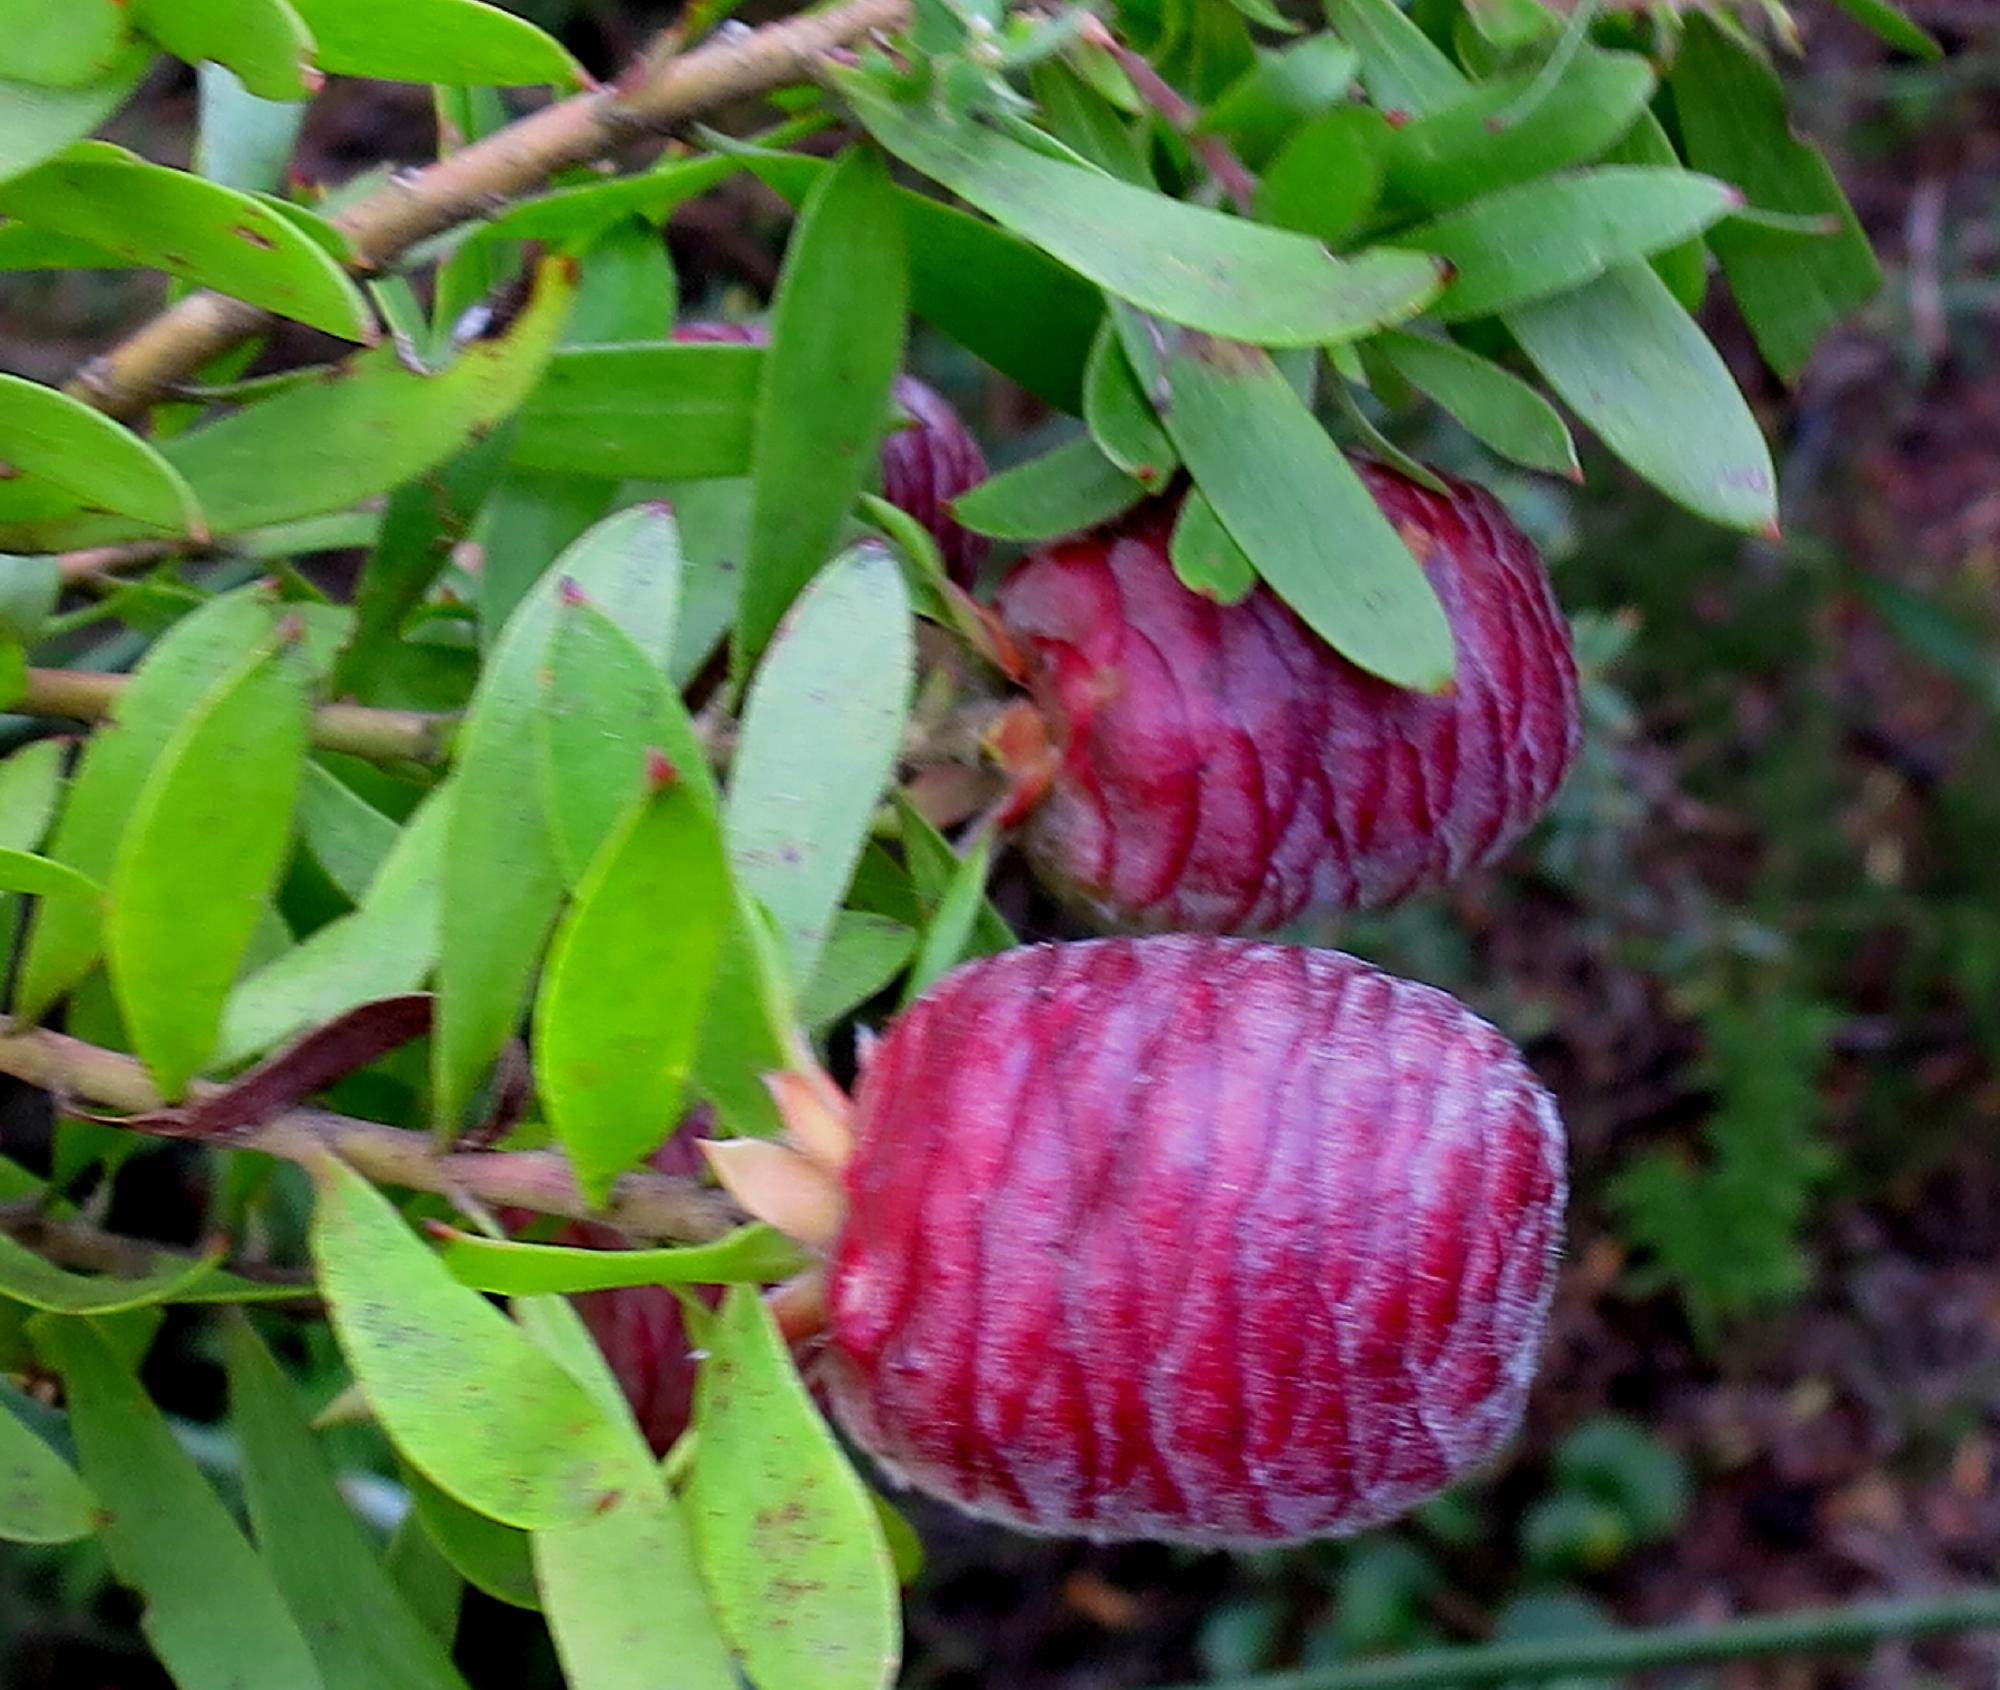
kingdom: Plantae
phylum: Tracheophyta
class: Magnoliopsida
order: Proteales
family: Proteaceae
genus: Leucadendron
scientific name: Leucadendron conicum
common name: Garden route conebush
